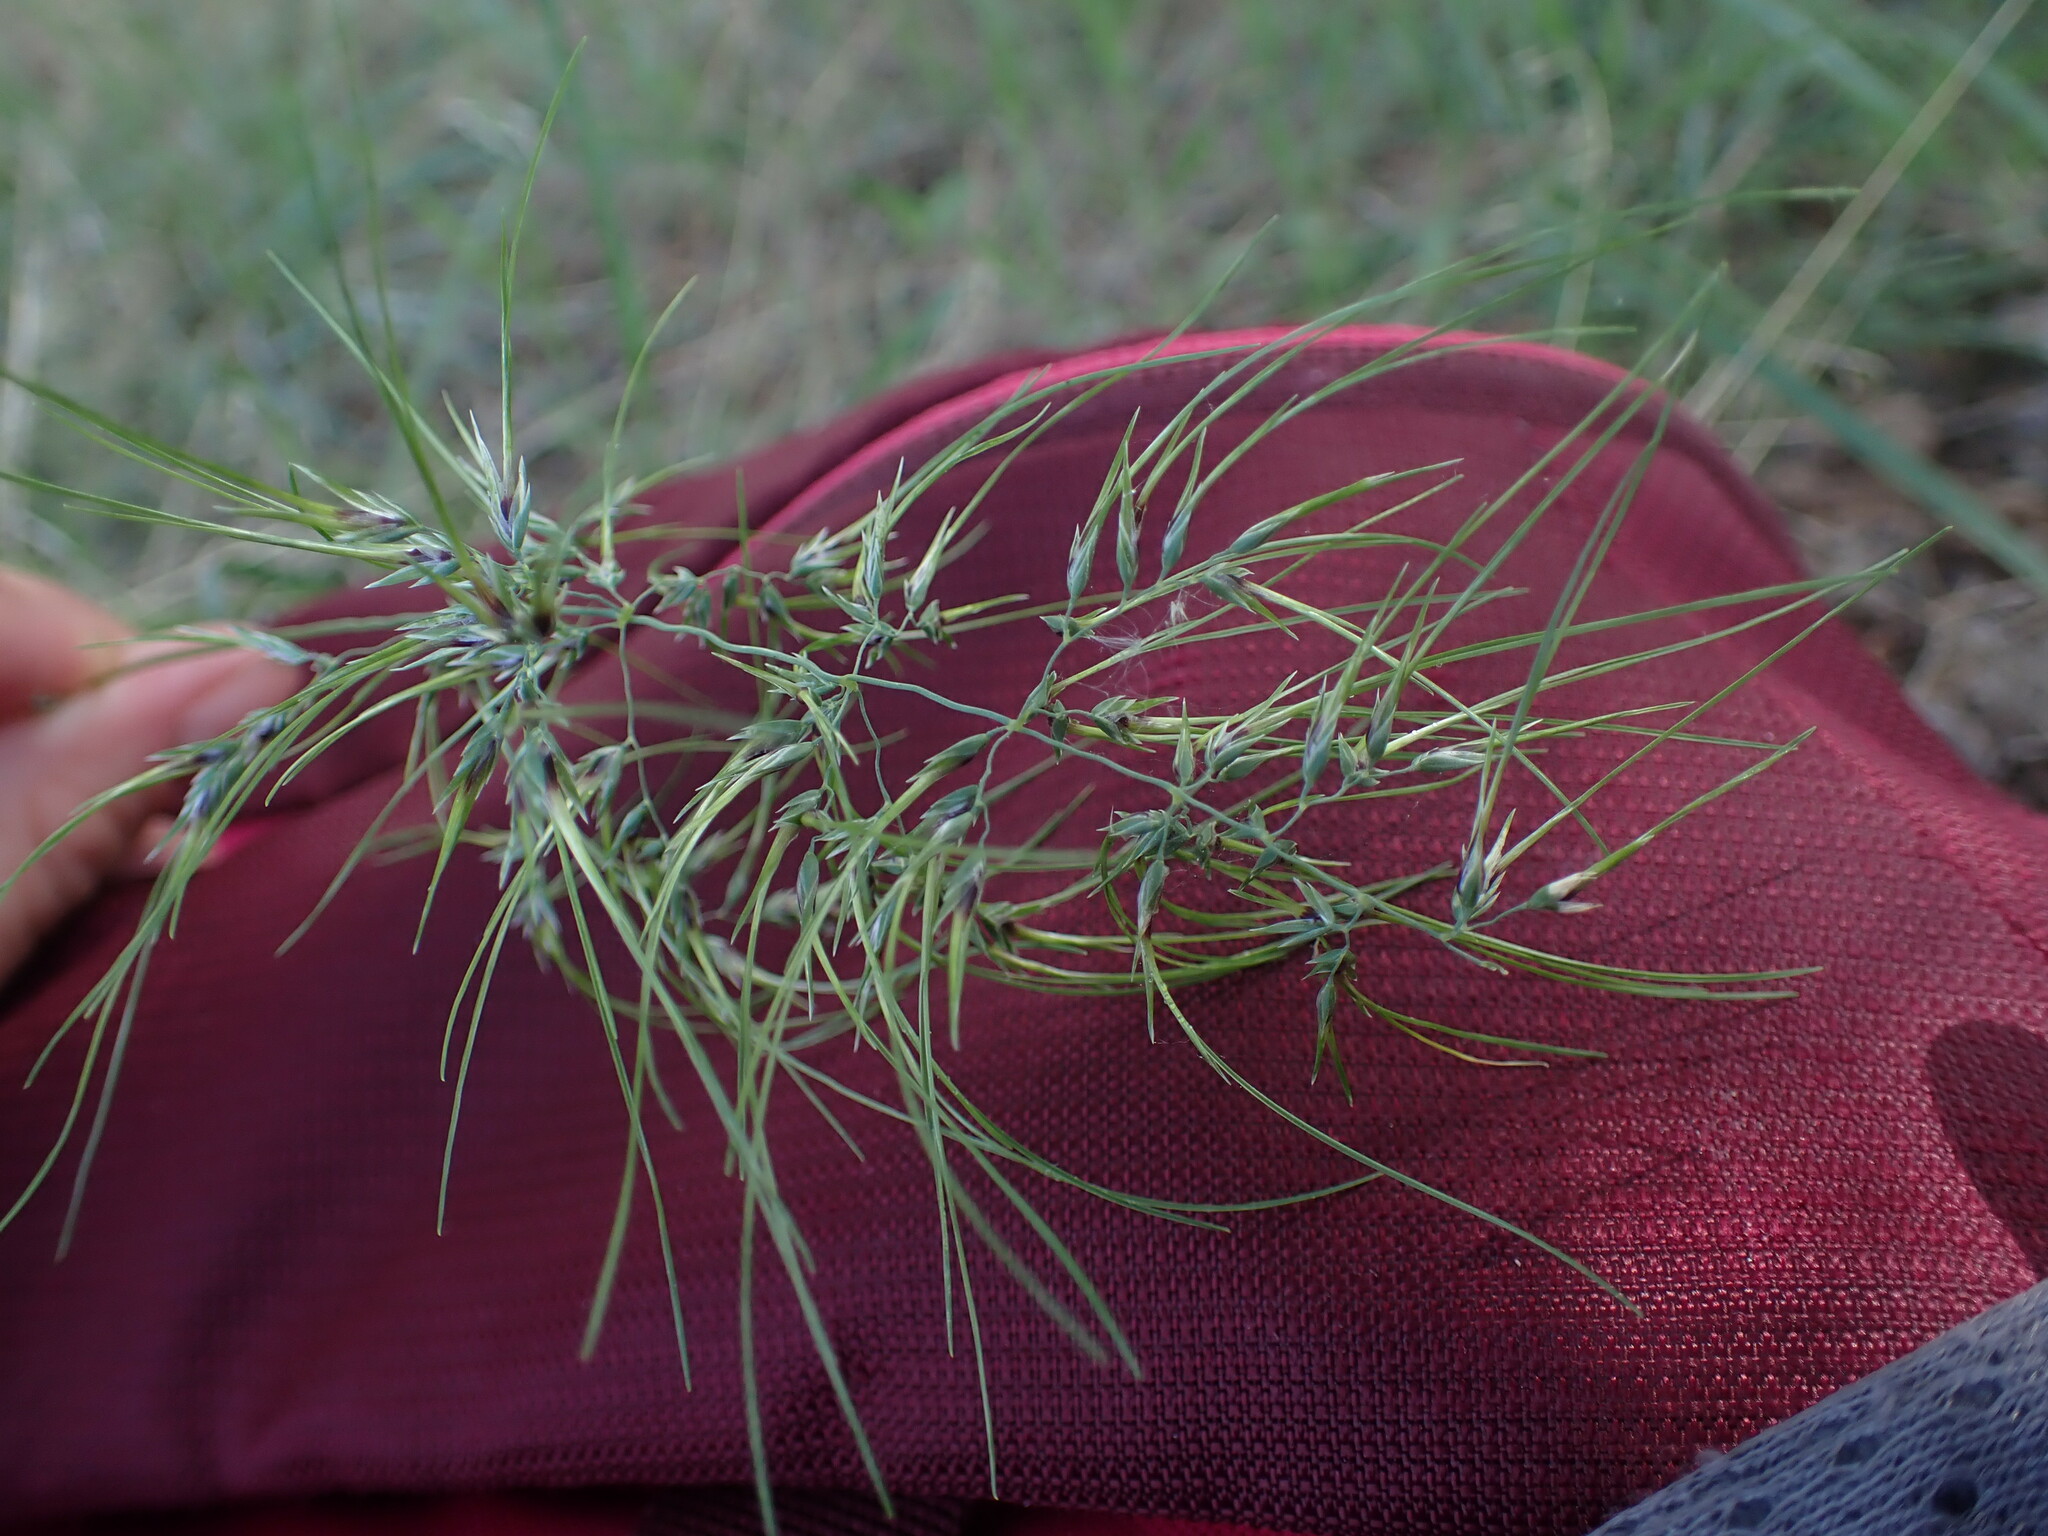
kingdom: Plantae
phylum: Tracheophyta
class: Liliopsida
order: Poales
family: Poaceae
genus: Poa
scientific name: Poa bulbosa
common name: Bulbous bluegrass
